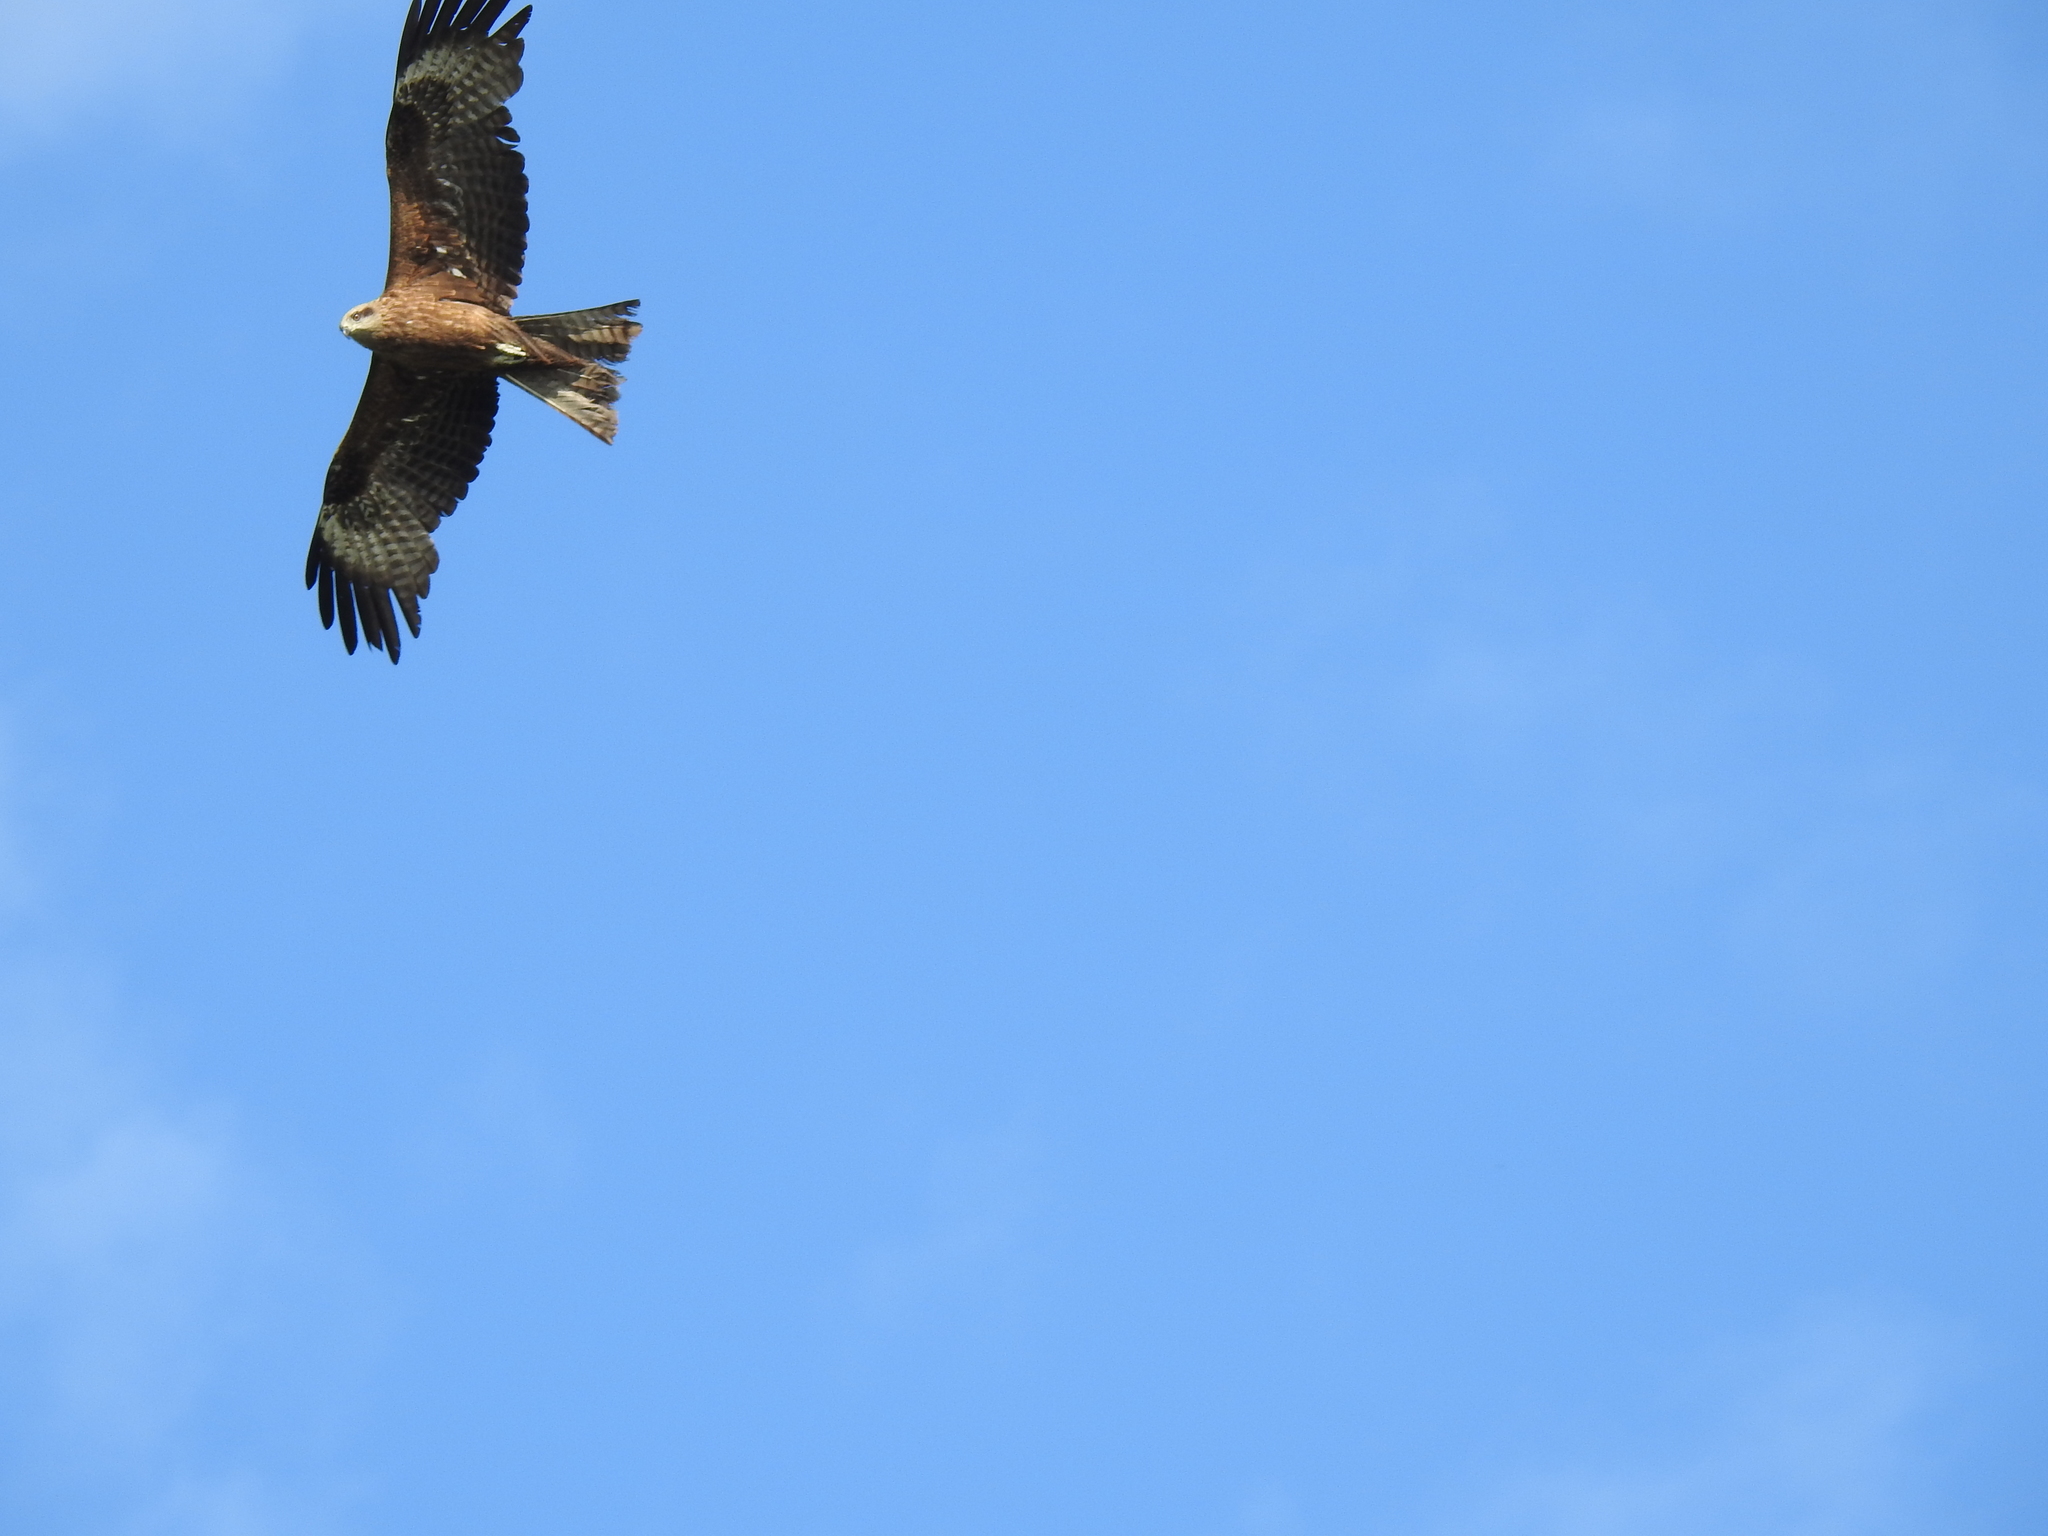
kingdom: Animalia
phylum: Chordata
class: Aves
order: Accipitriformes
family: Accipitridae
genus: Milvus
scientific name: Milvus migrans
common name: Black kite
